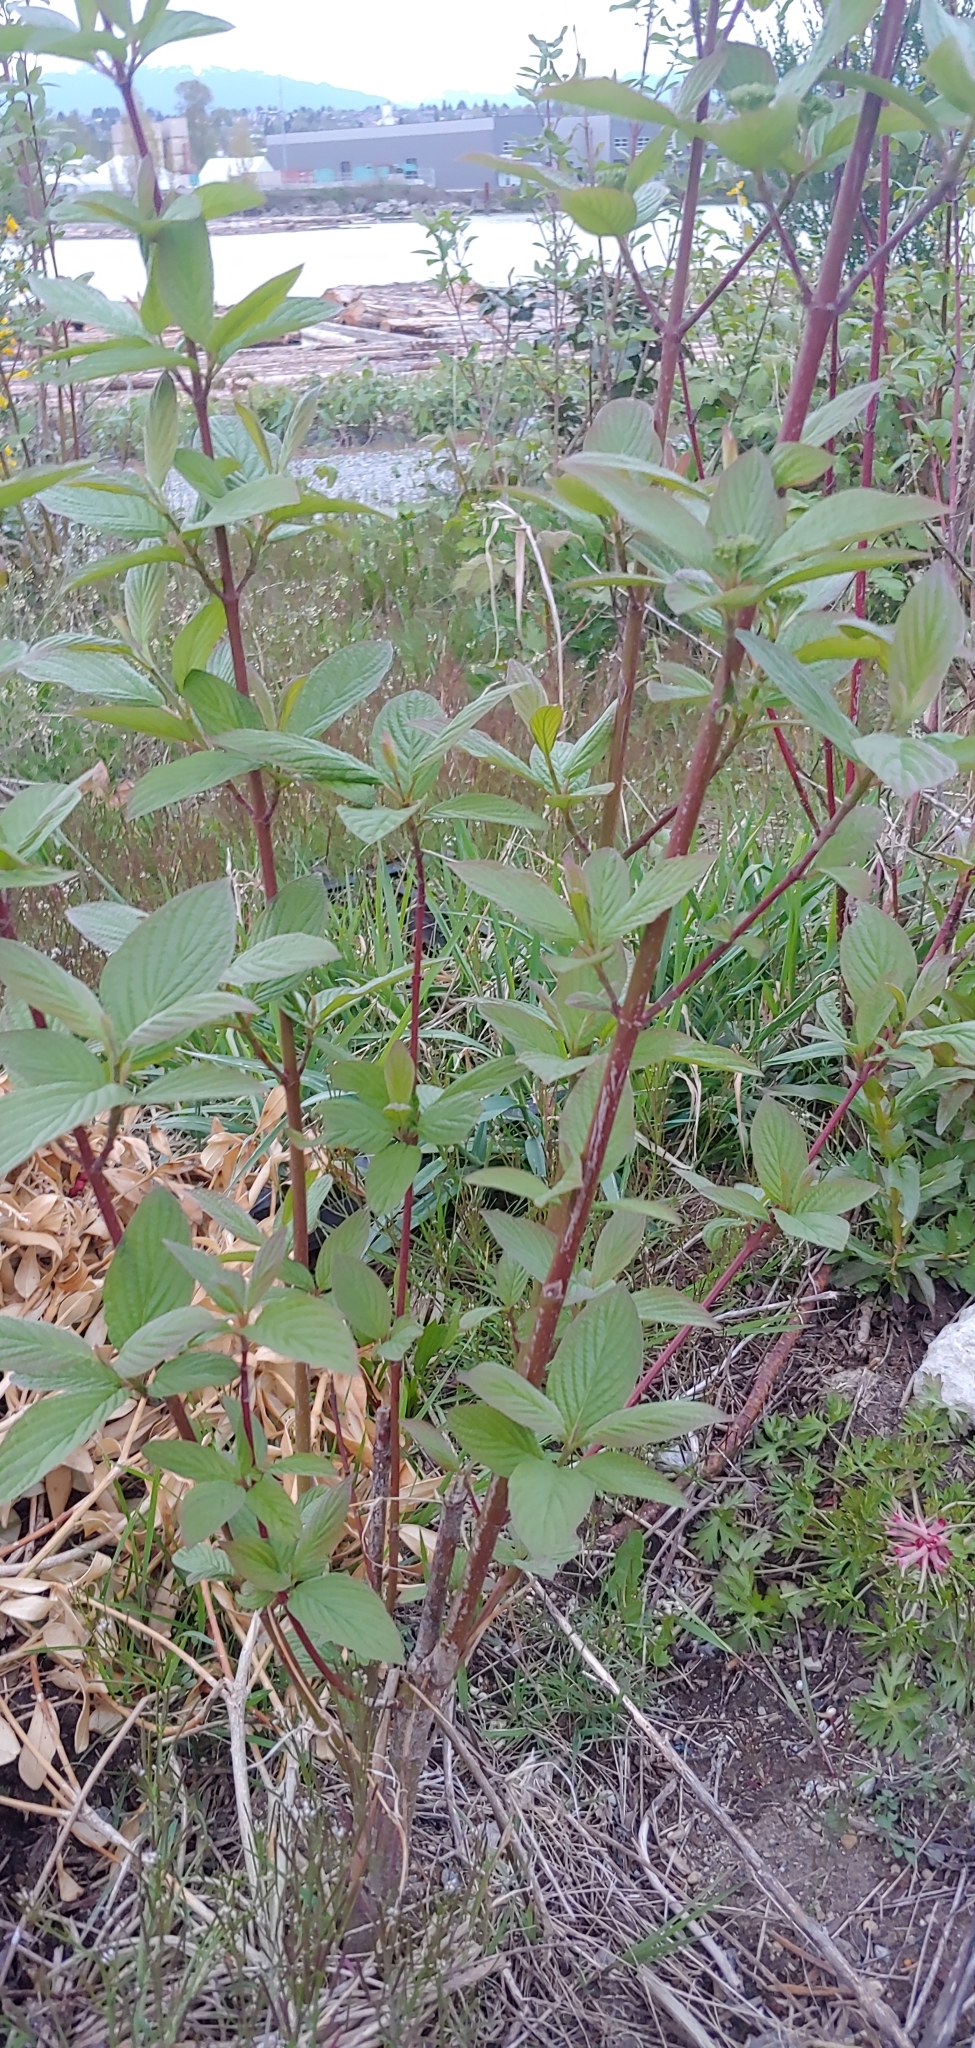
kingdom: Plantae
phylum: Tracheophyta
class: Magnoliopsida
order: Cornales
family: Cornaceae
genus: Cornus
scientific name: Cornus sericea
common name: Red-osier dogwood
